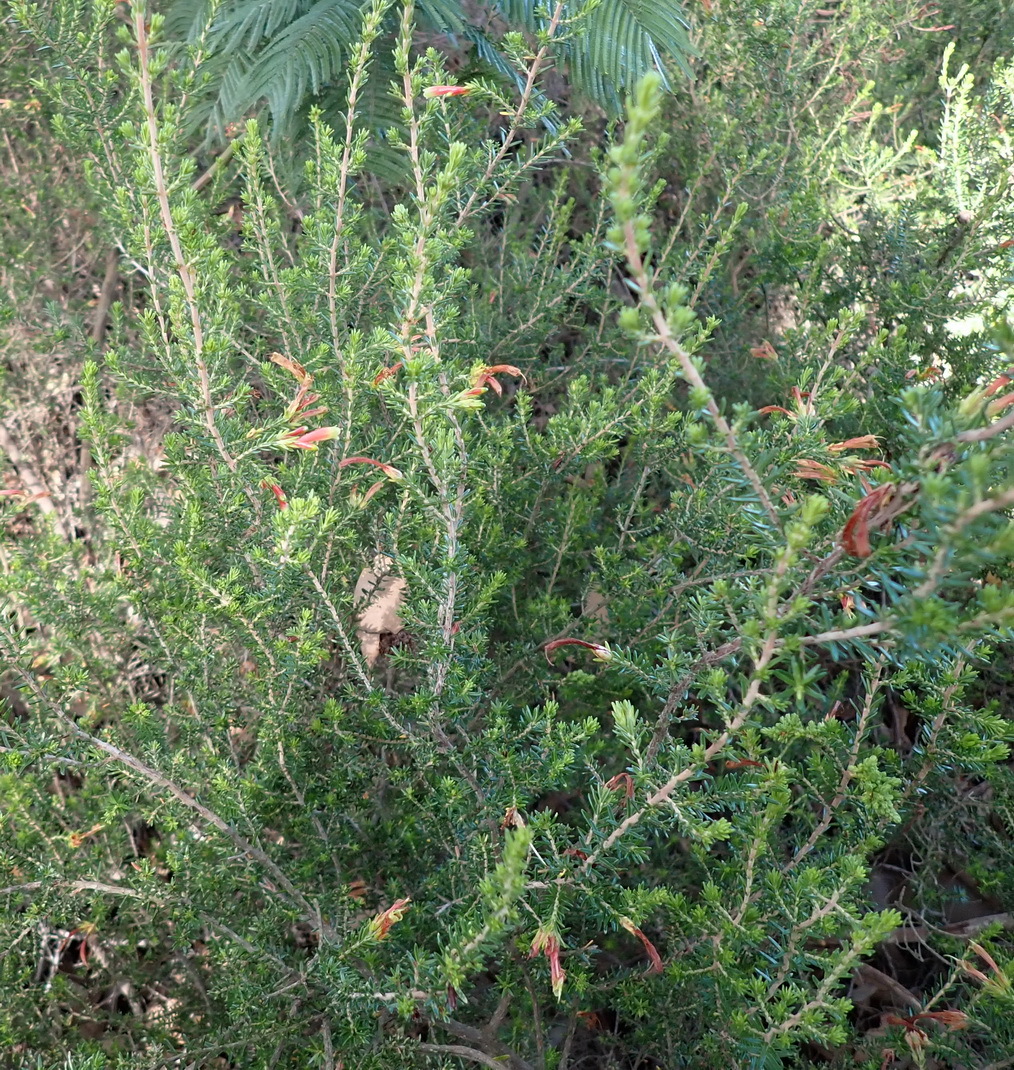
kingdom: Plantae
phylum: Tracheophyta
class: Magnoliopsida
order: Ericales
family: Ericaceae
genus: Erica
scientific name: Erica discolor
